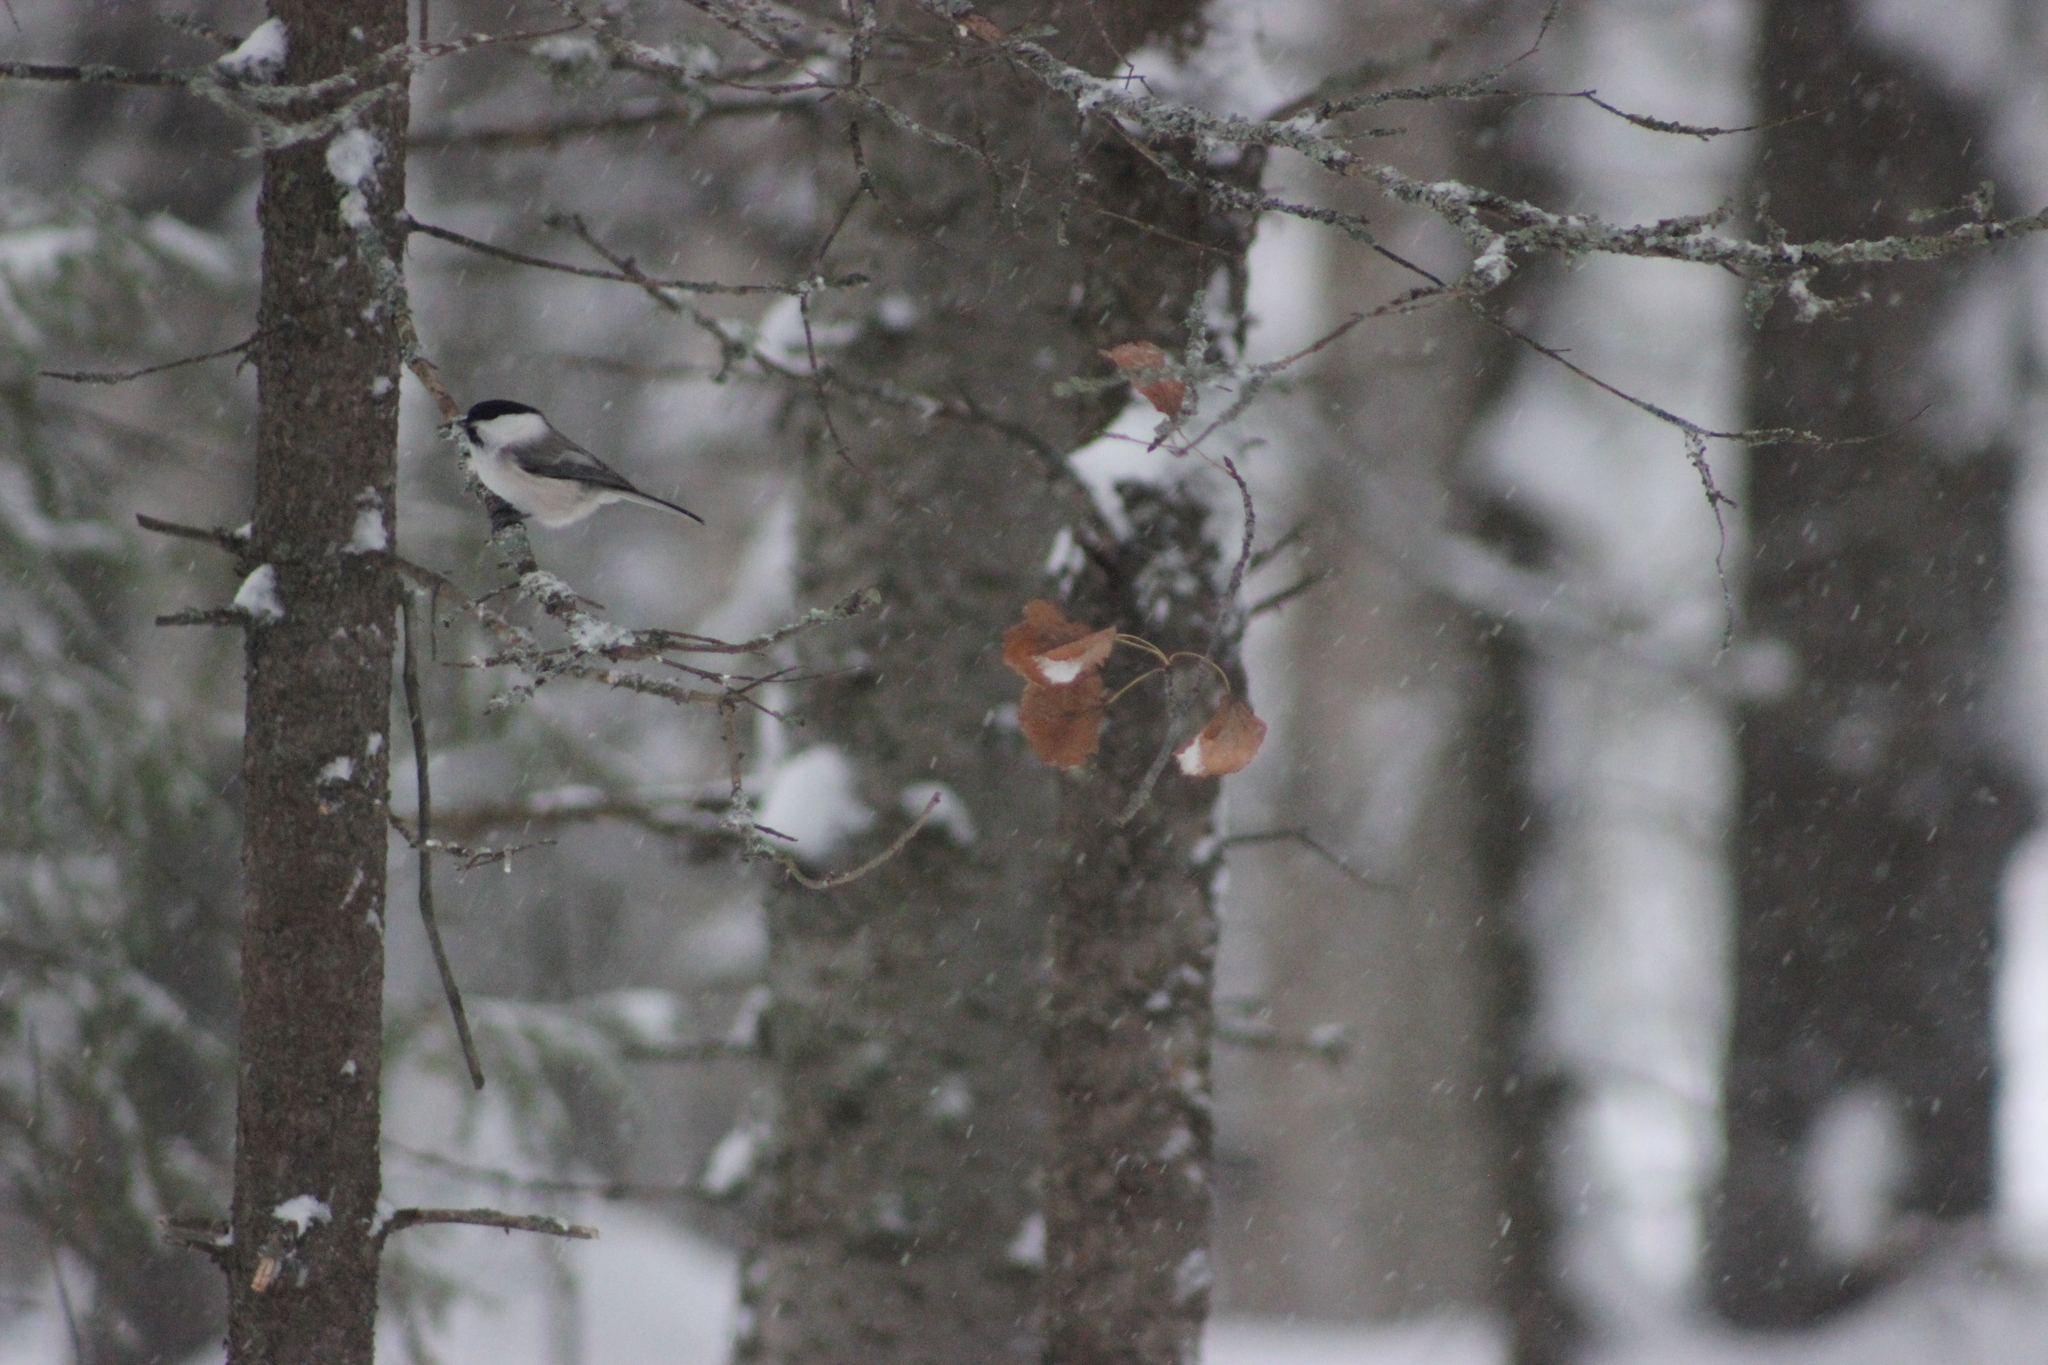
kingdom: Animalia
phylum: Chordata
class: Aves
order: Passeriformes
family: Paridae
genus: Poecile
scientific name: Poecile montanus
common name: Willow tit
